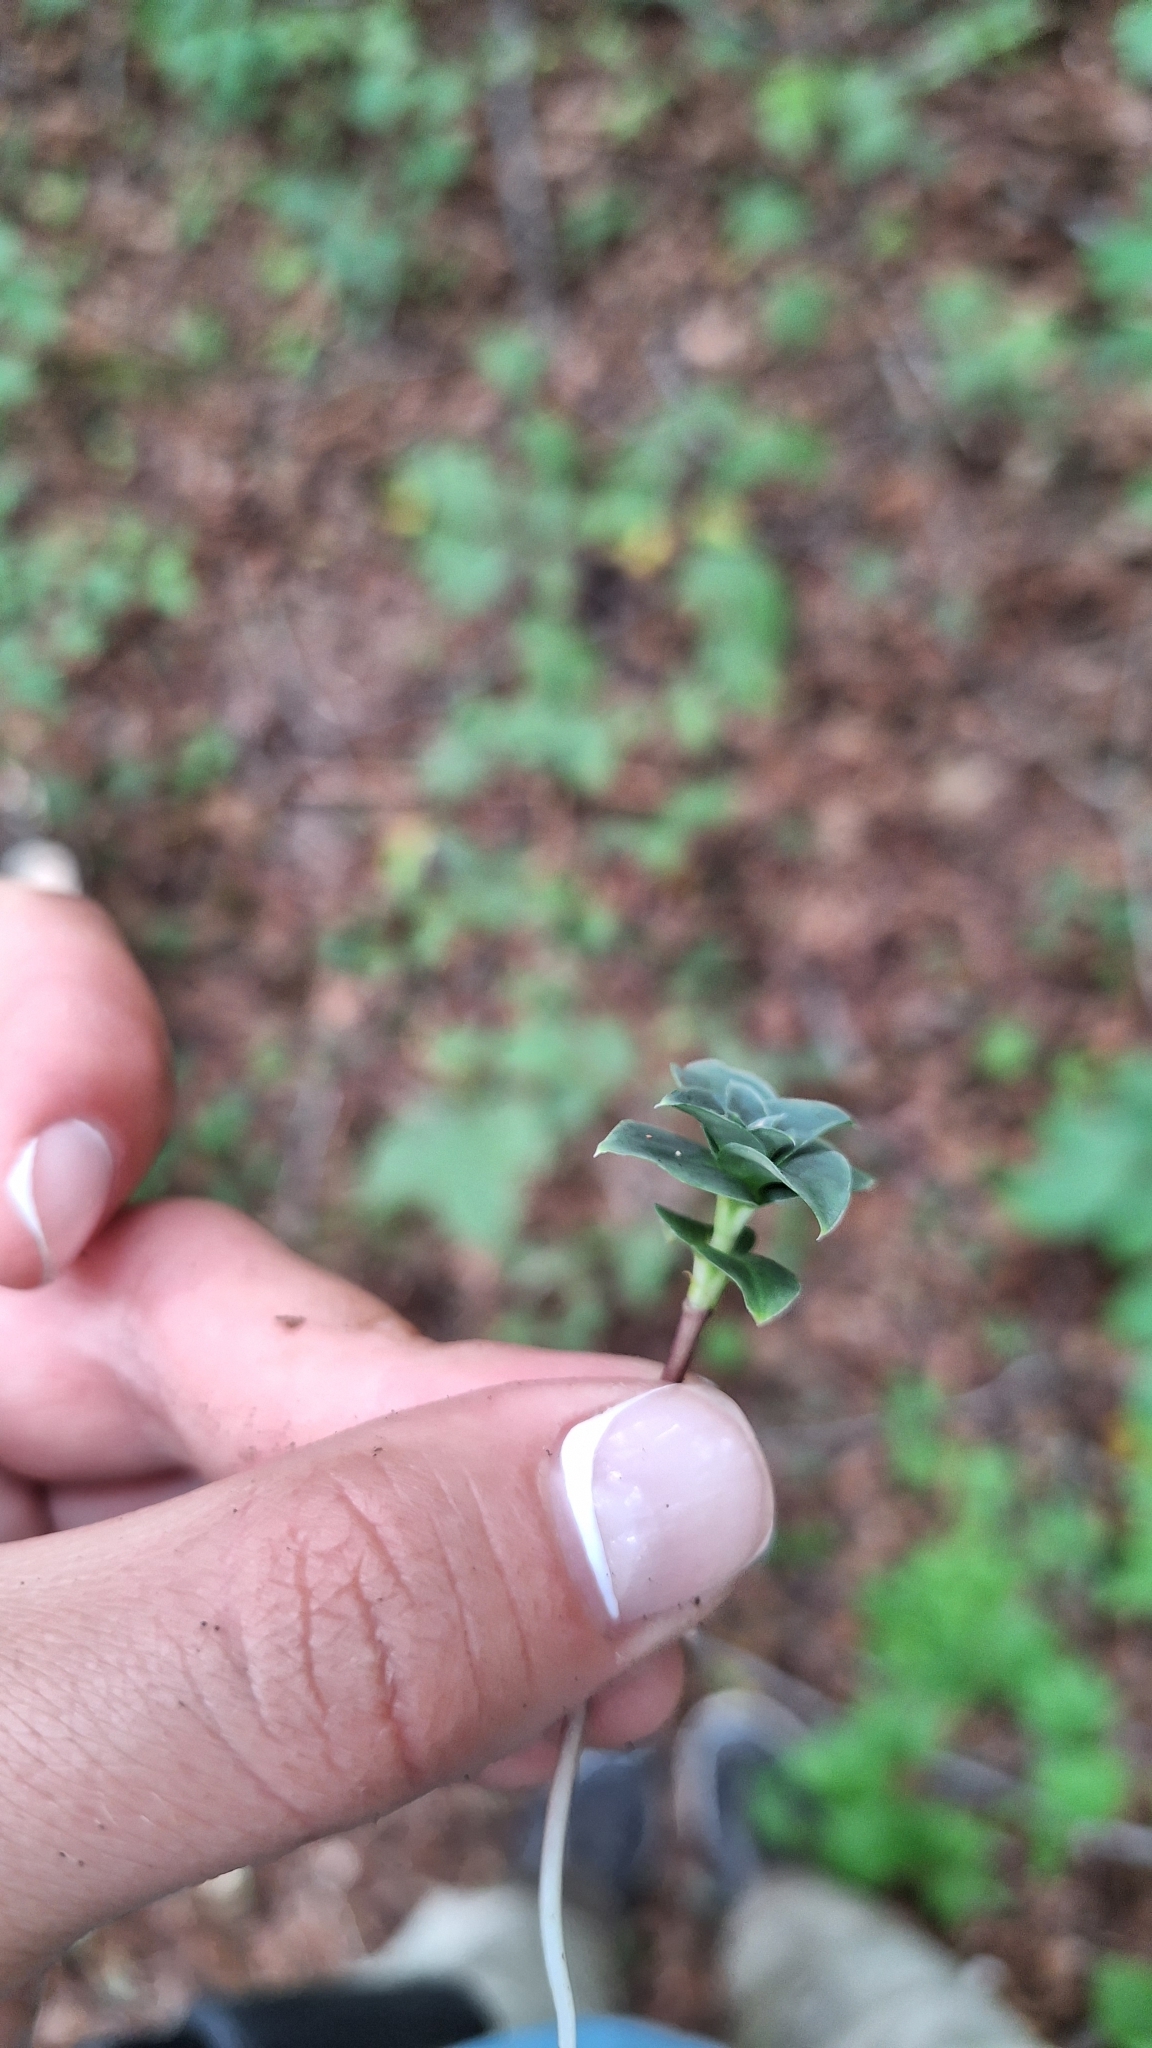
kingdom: Plantae
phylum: Tracheophyta
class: Magnoliopsida
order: Gentianales
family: Gentianaceae
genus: Gentiana
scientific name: Gentiana zollingeri
